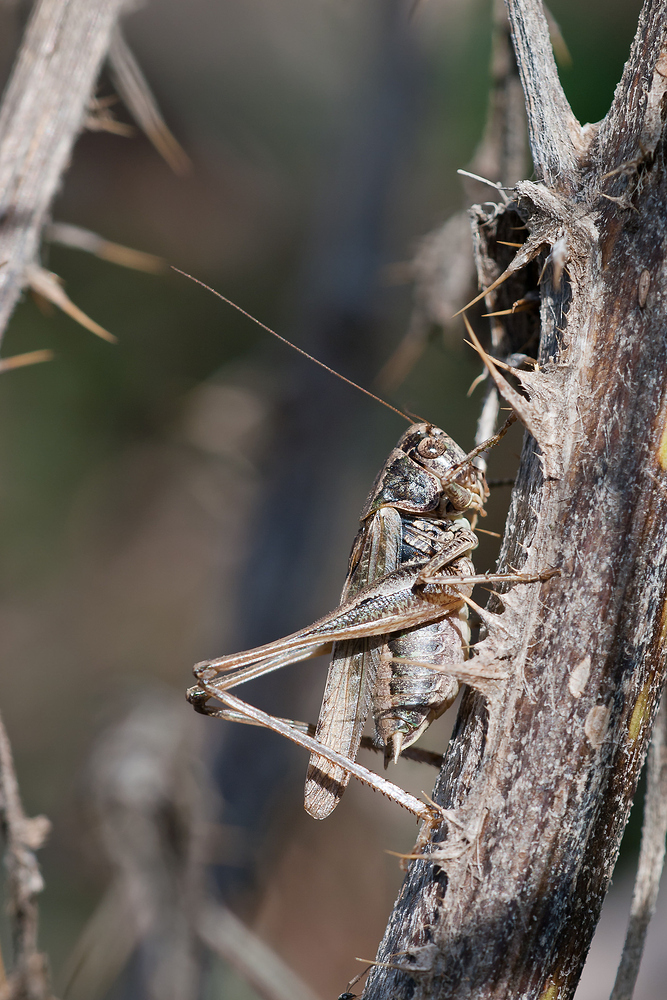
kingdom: Animalia
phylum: Arthropoda
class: Insecta
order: Orthoptera
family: Tettigoniidae
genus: Platycleis
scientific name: Platycleis albopunctata
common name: Grey bush-cricket
